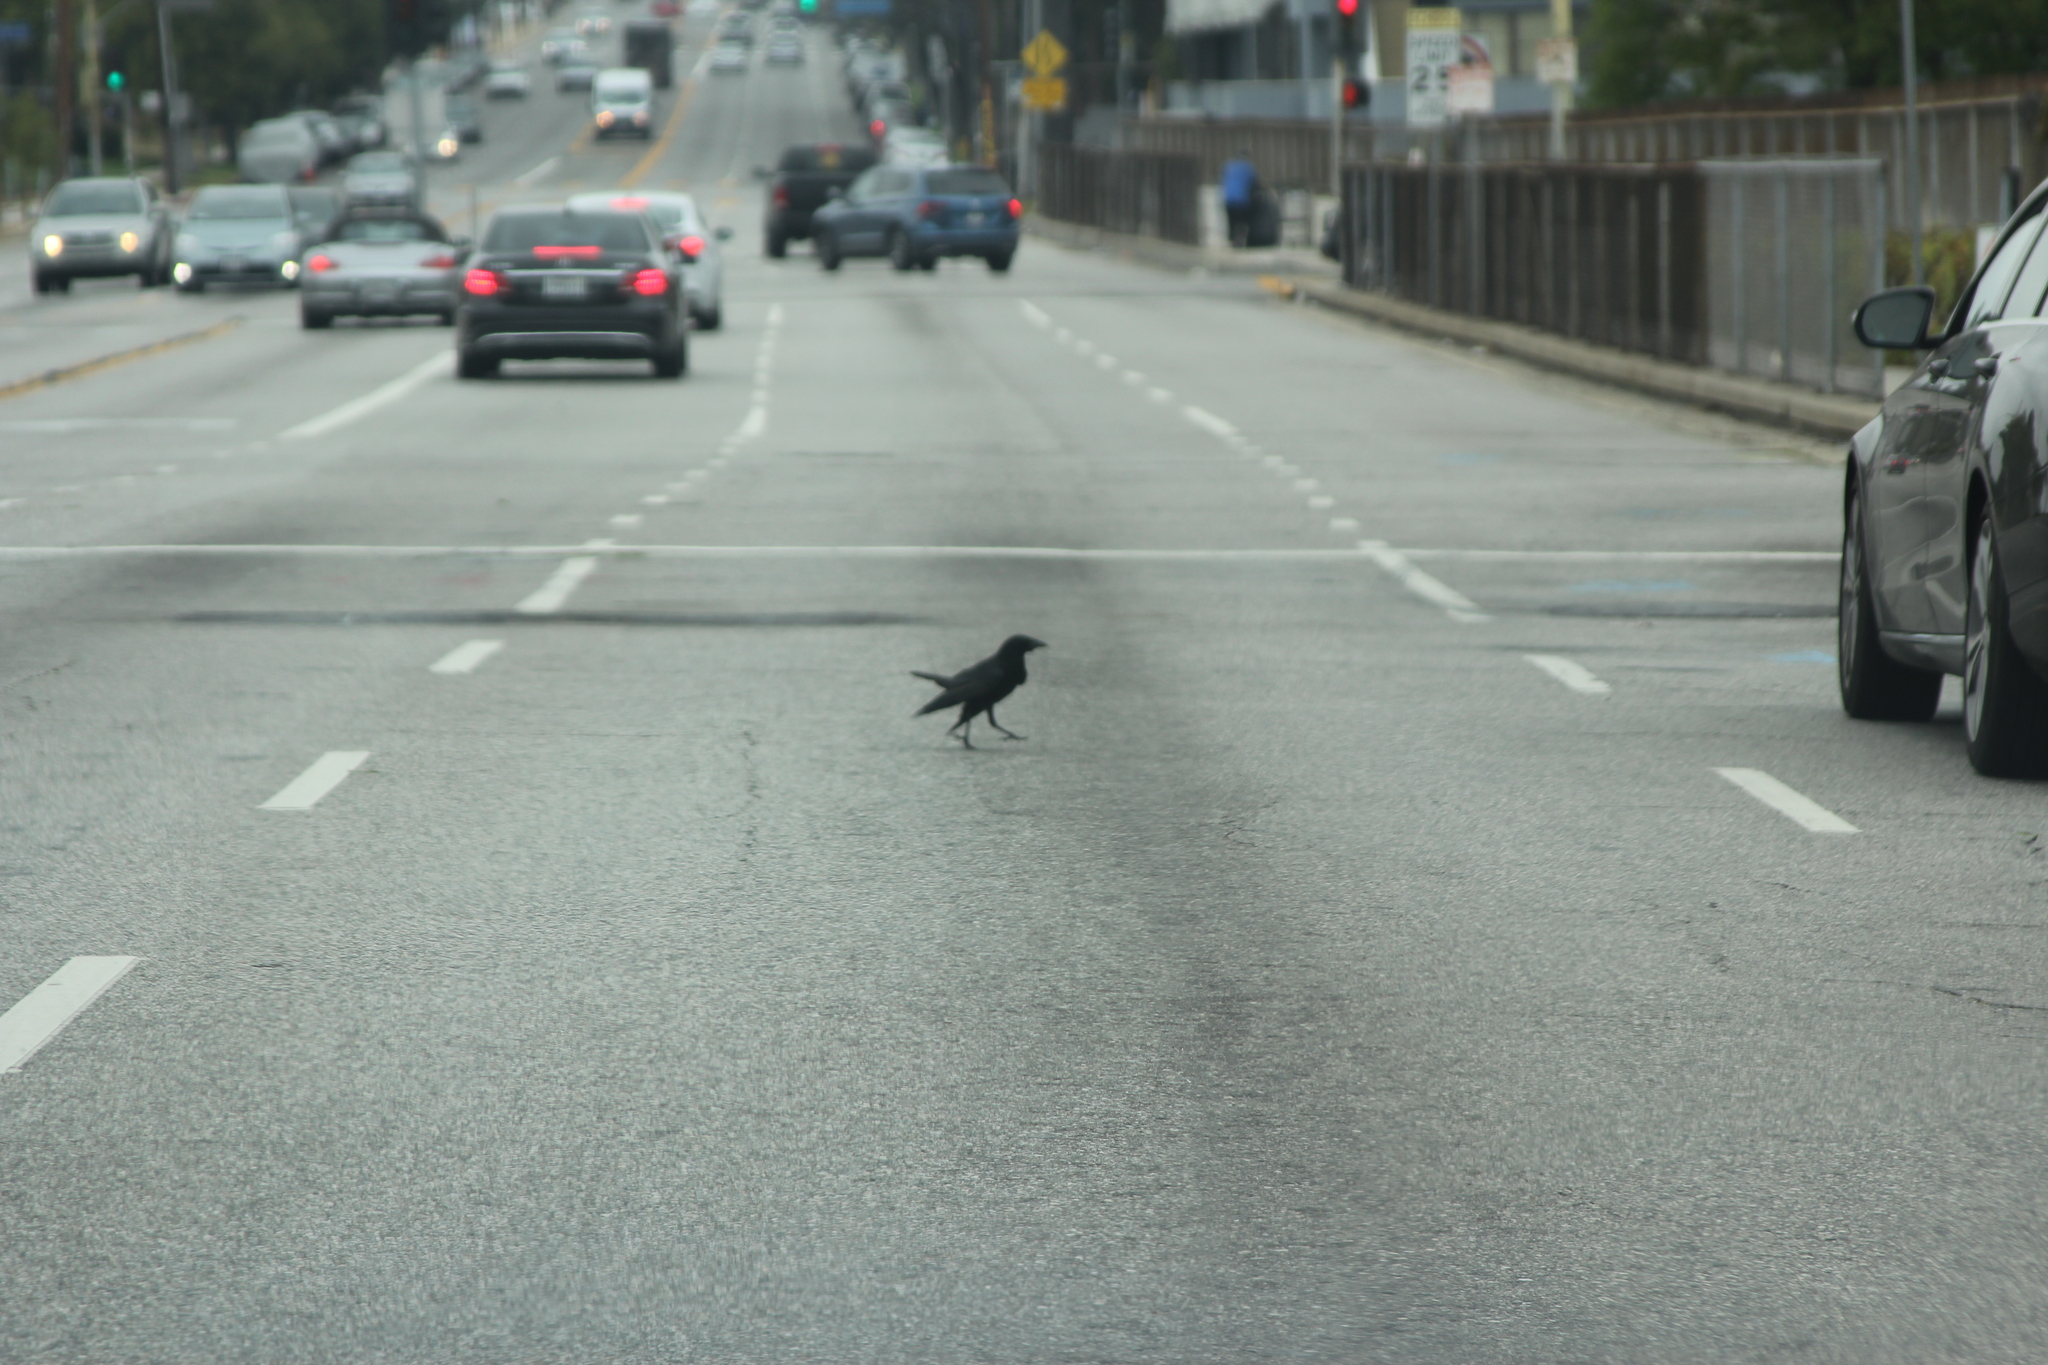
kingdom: Animalia
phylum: Chordata
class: Aves
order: Passeriformes
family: Corvidae
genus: Corvus
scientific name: Corvus brachyrhynchos
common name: American crow
